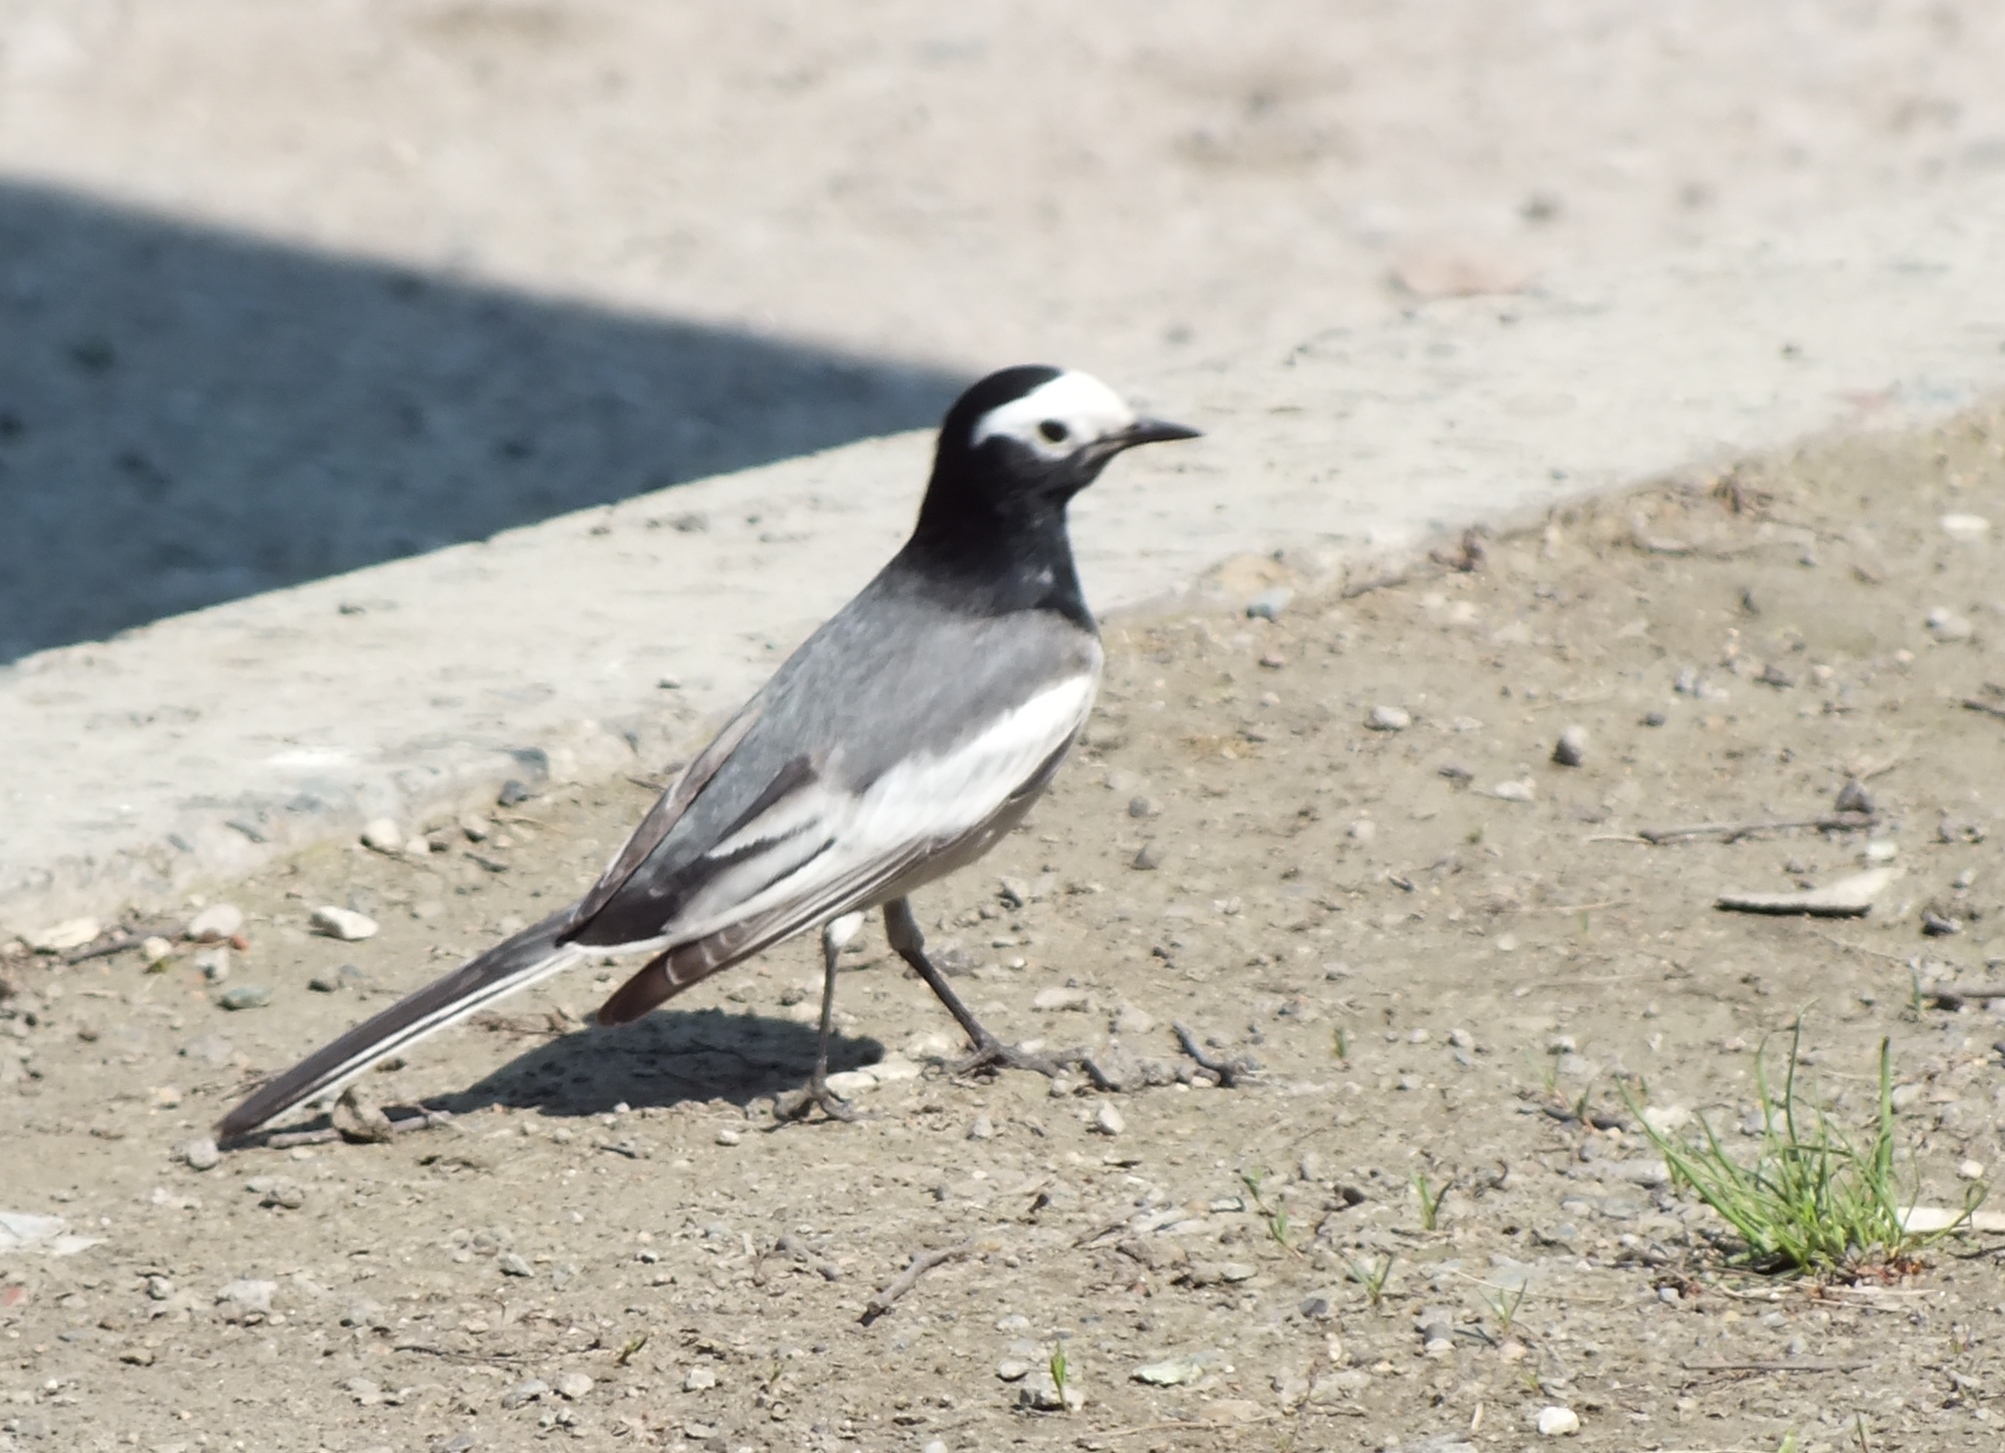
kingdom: Animalia
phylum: Chordata
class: Aves
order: Passeriformes
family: Motacillidae
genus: Motacilla
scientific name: Motacilla alba
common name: White wagtail
